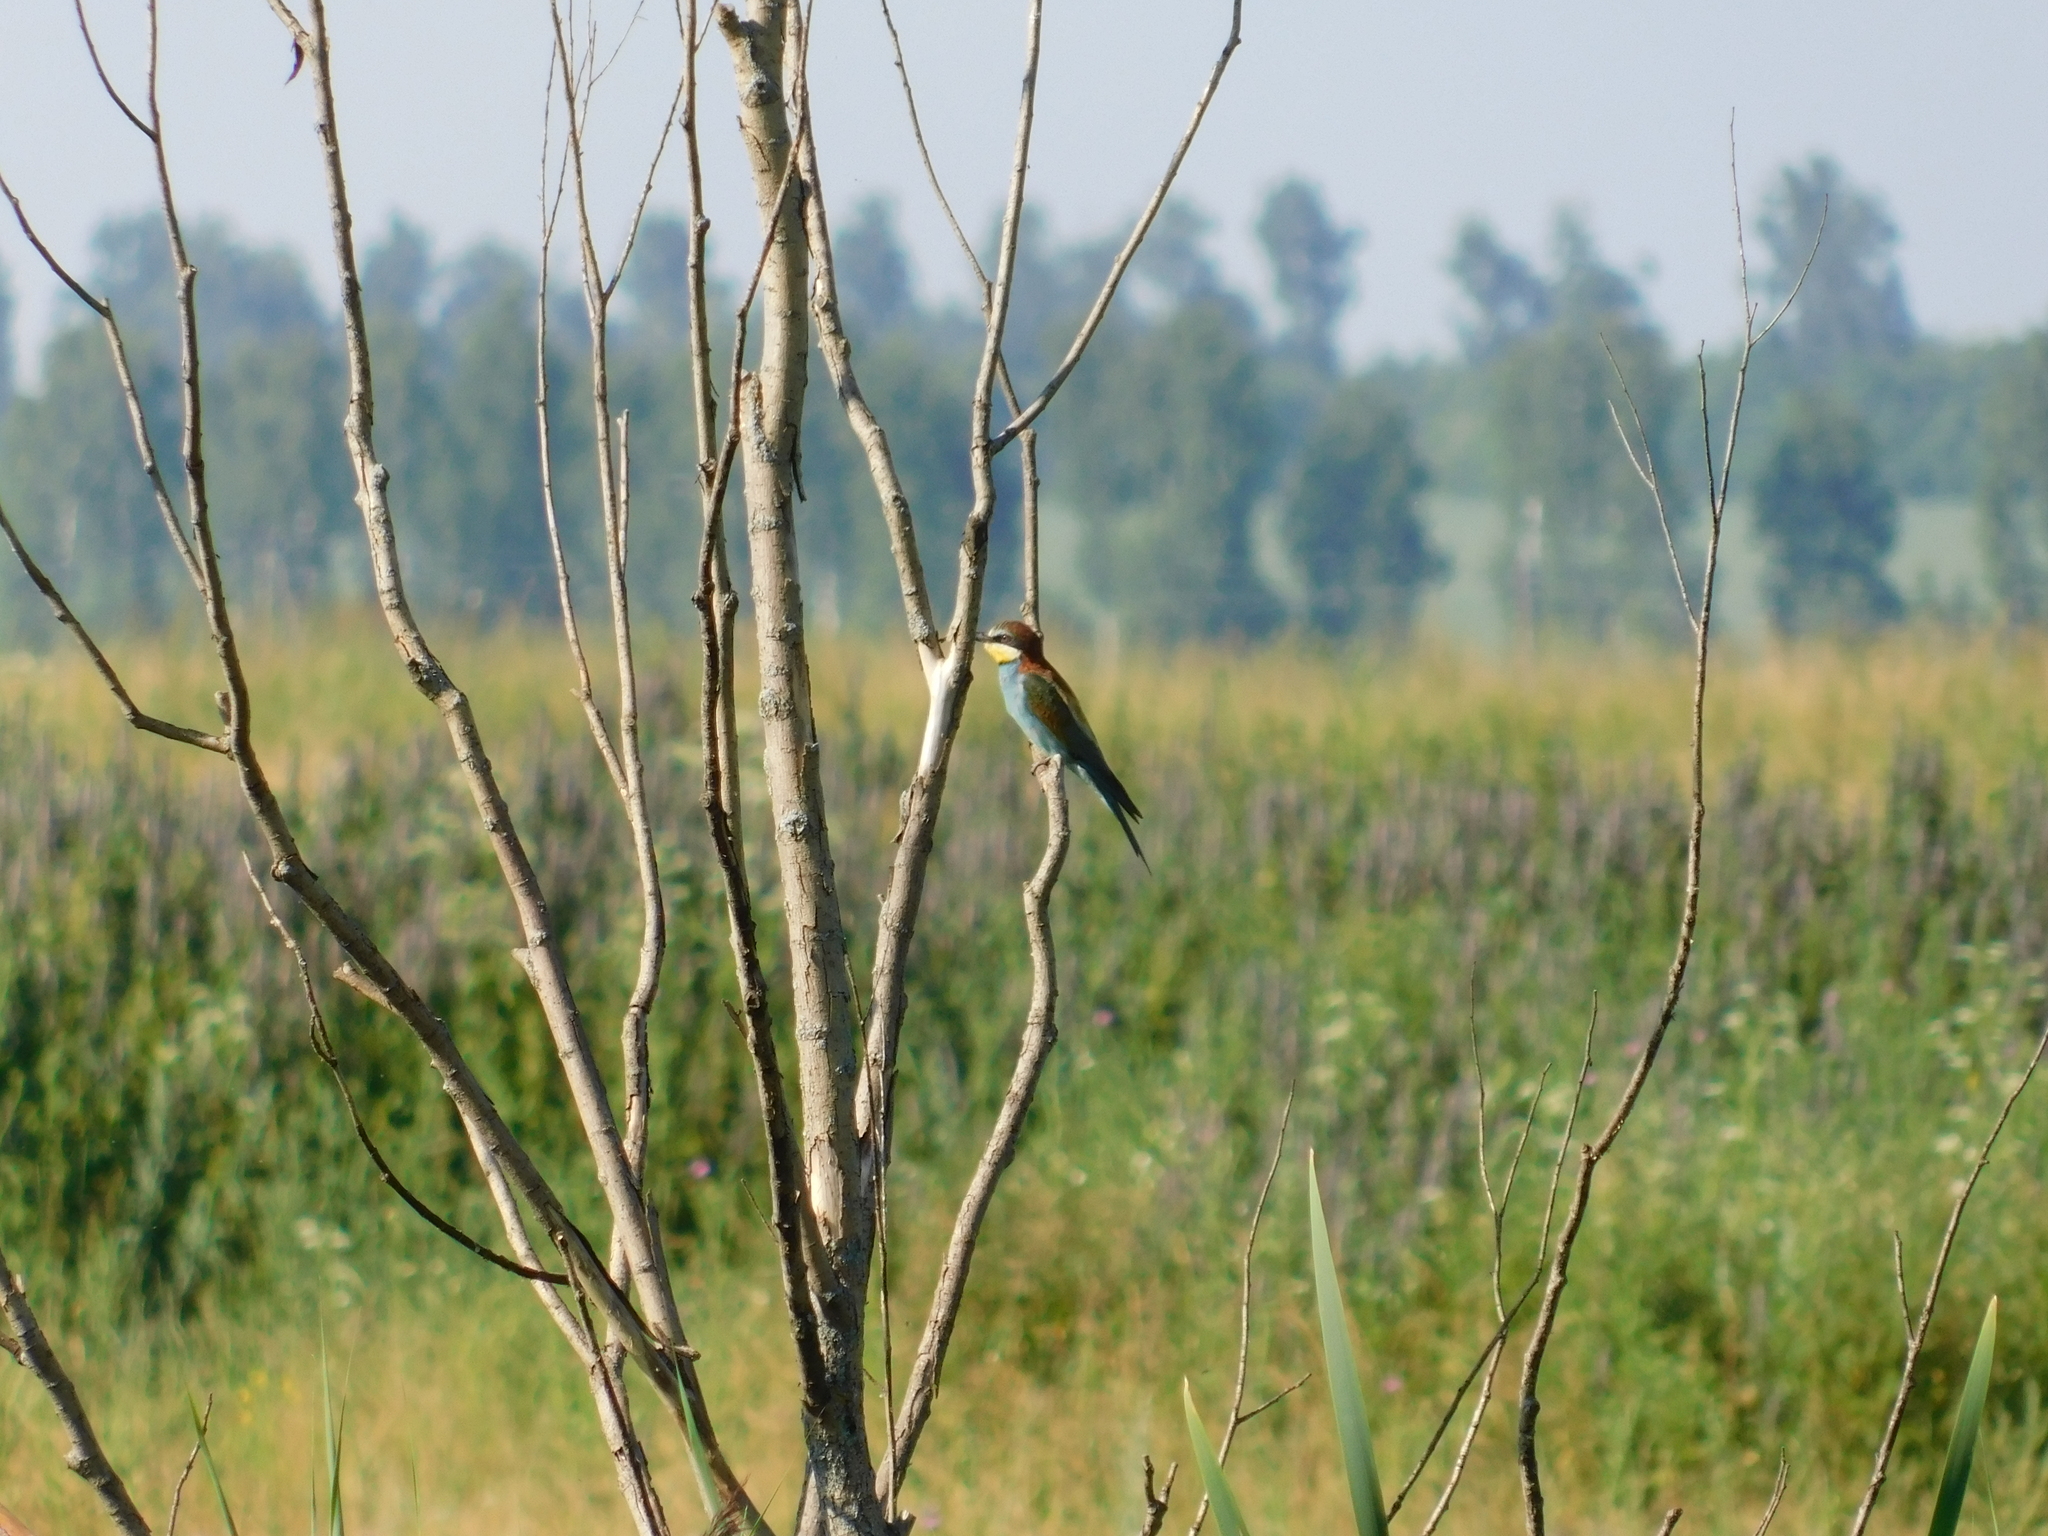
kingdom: Animalia
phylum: Chordata
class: Aves
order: Coraciiformes
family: Meropidae
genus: Merops
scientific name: Merops apiaster
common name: European bee-eater
